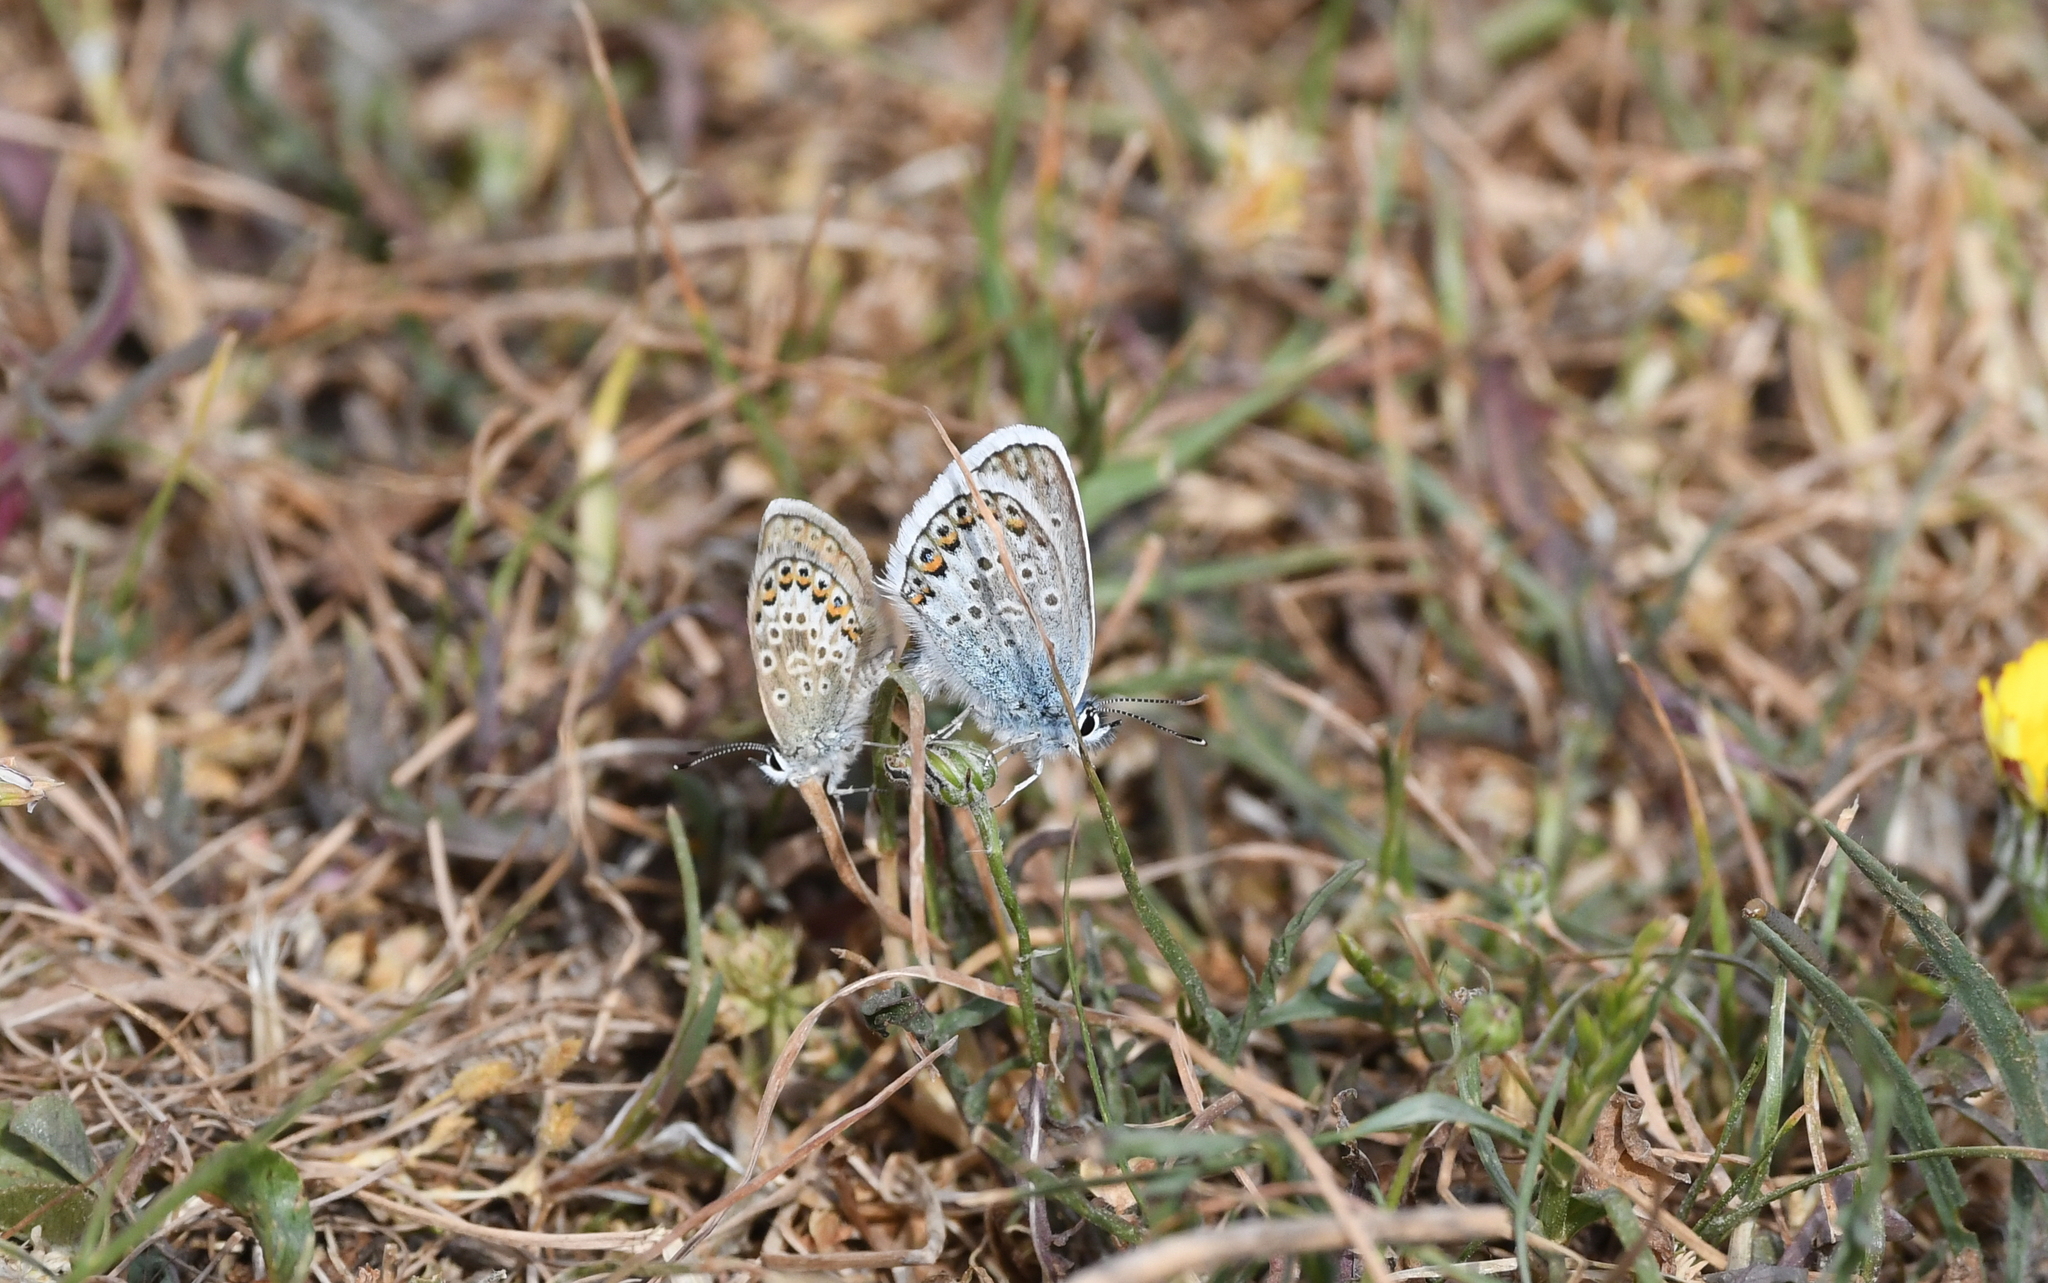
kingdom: Animalia
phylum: Arthropoda
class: Insecta
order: Lepidoptera
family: Lycaenidae
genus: Plebejus
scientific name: Plebejus argus
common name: Silver-studded blue
